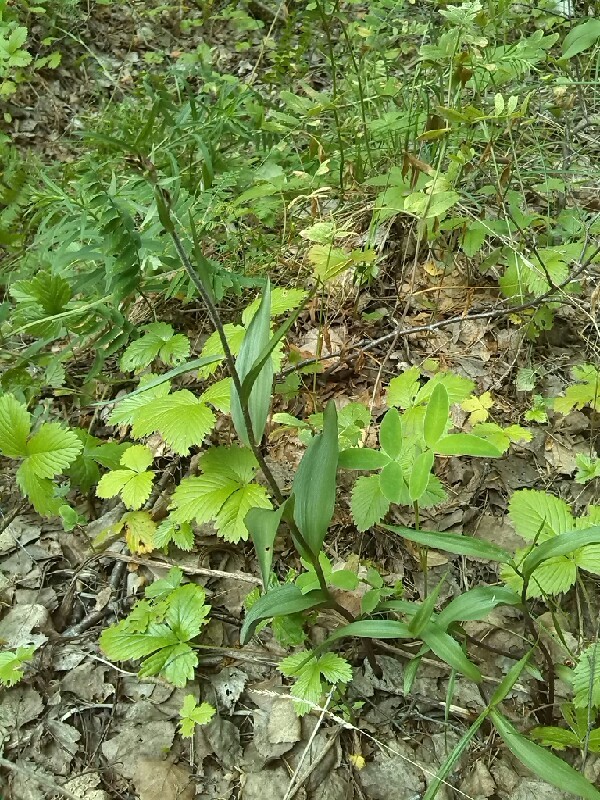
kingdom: Plantae
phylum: Tracheophyta
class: Liliopsida
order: Asparagales
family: Orchidaceae
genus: Epipactis
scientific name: Epipactis atrorubens
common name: Dark-red helleborine
